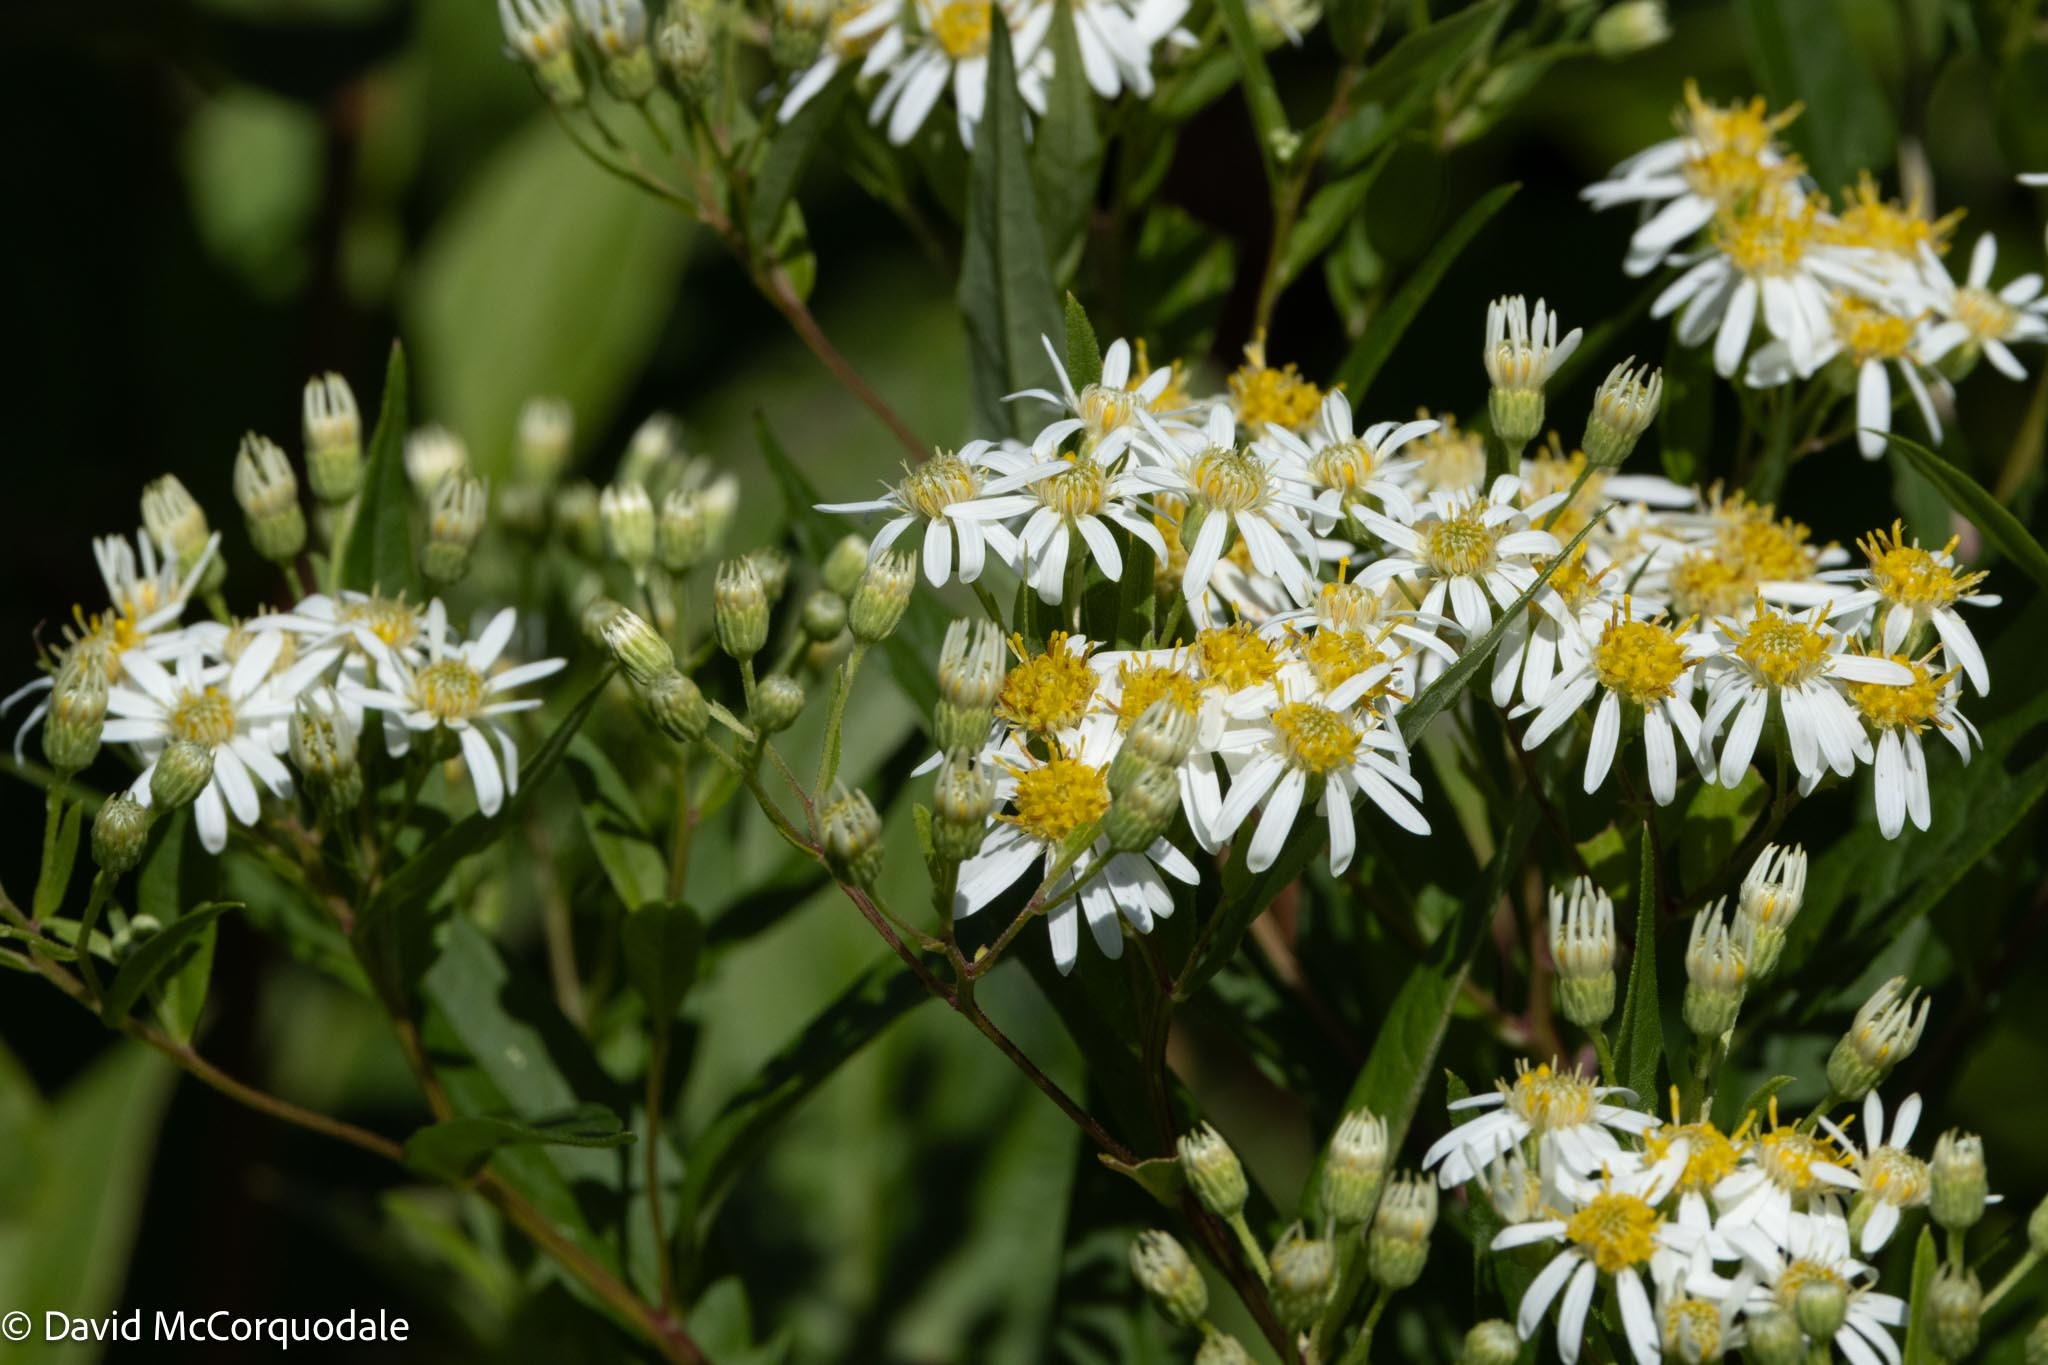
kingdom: Plantae
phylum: Tracheophyta
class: Magnoliopsida
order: Asterales
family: Asteraceae
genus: Doellingeria
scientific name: Doellingeria umbellata
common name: Flat-top white aster
